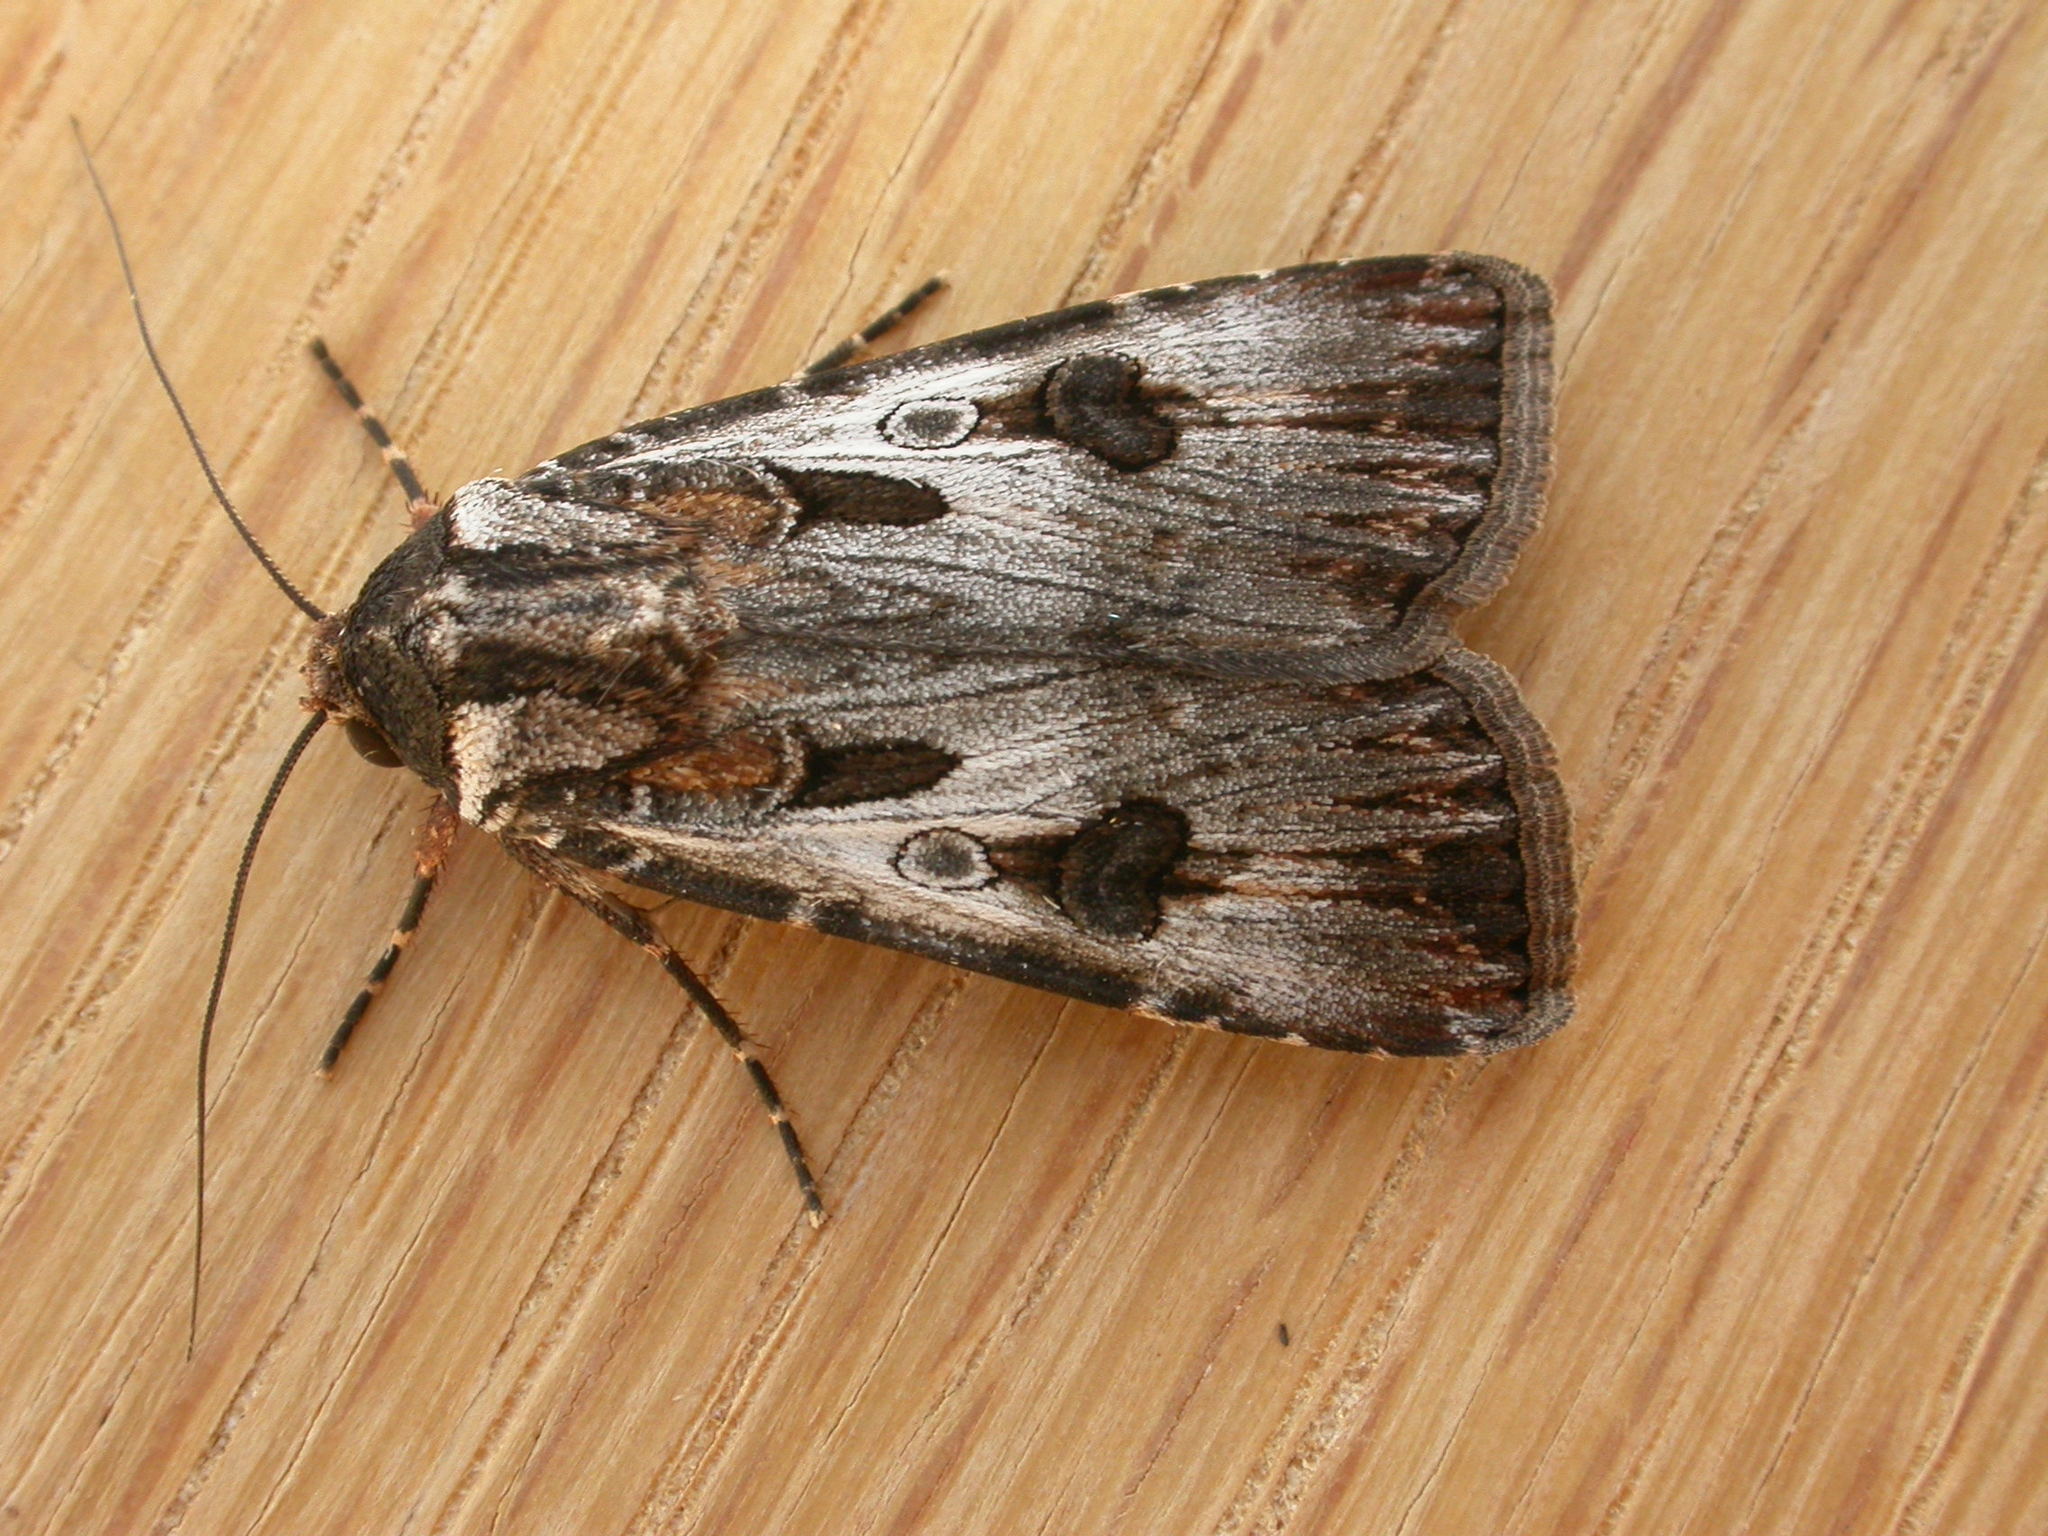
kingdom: Animalia
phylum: Arthropoda
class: Insecta
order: Lepidoptera
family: Noctuidae
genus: Agrotis
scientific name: Agrotis munda
